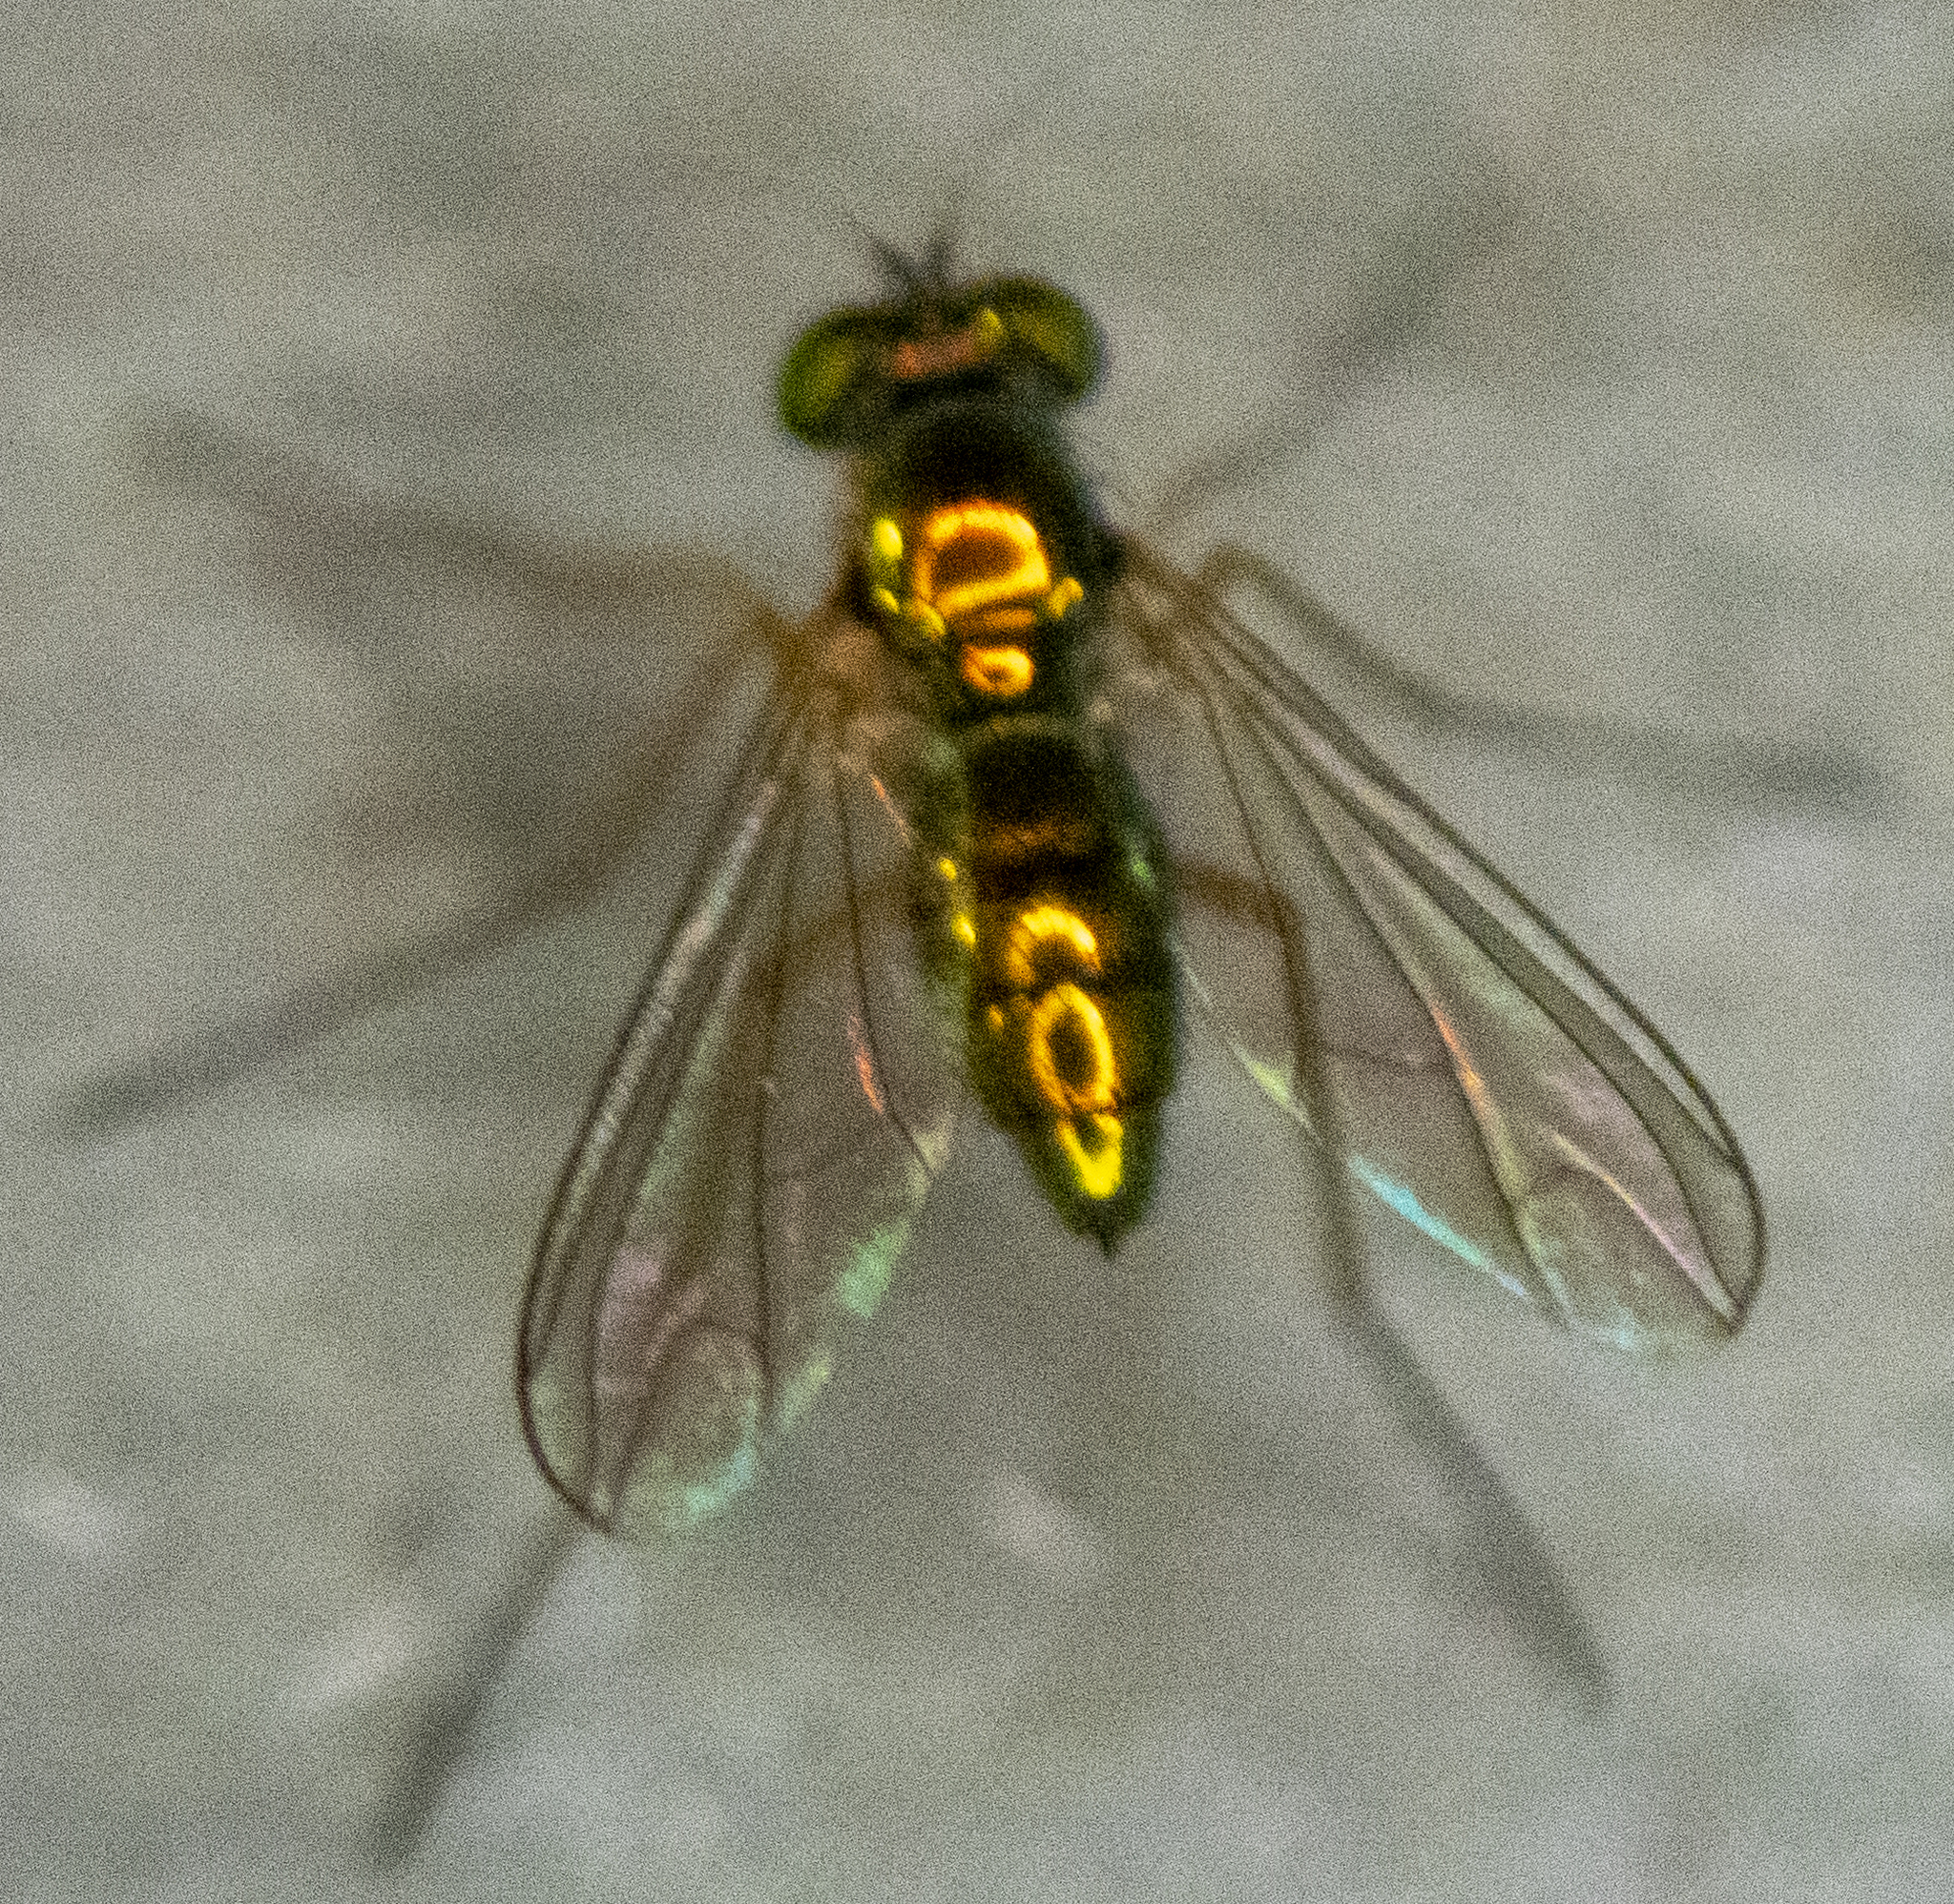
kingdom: Animalia
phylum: Arthropoda
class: Insecta
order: Diptera
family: Dolichopodidae
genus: Amblypsilopus
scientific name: Amblypsilopus scintillans
